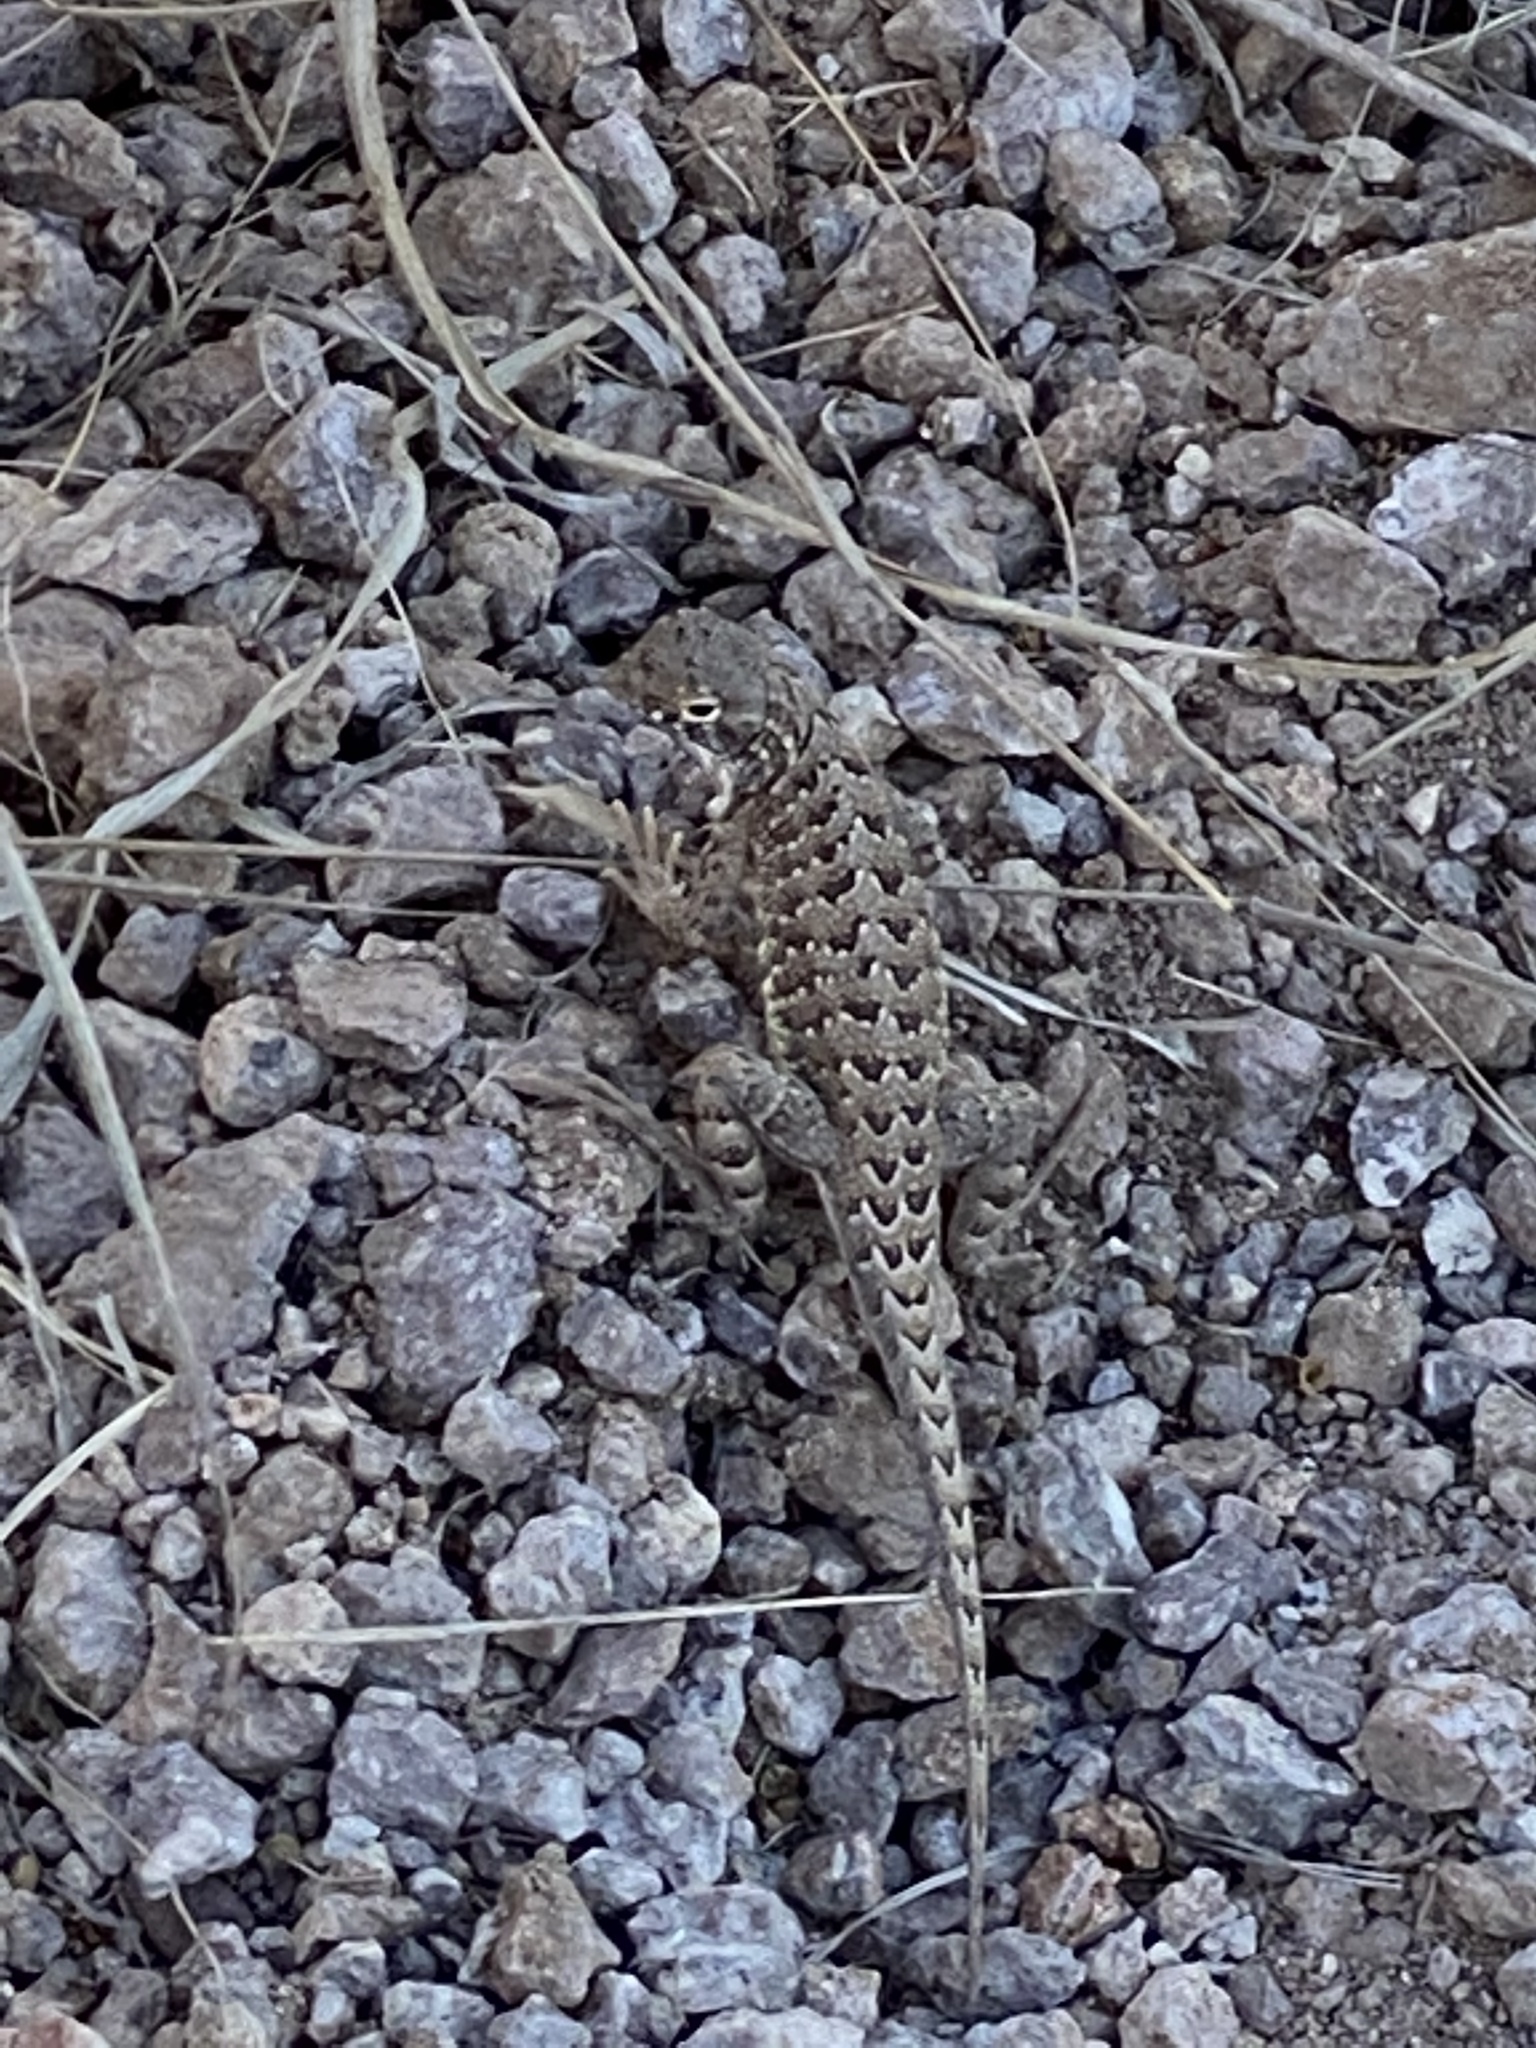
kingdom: Animalia
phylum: Chordata
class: Squamata
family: Phrynosomatidae
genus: Holbrookia
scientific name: Holbrookia elegans
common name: Elegant earless lizard
